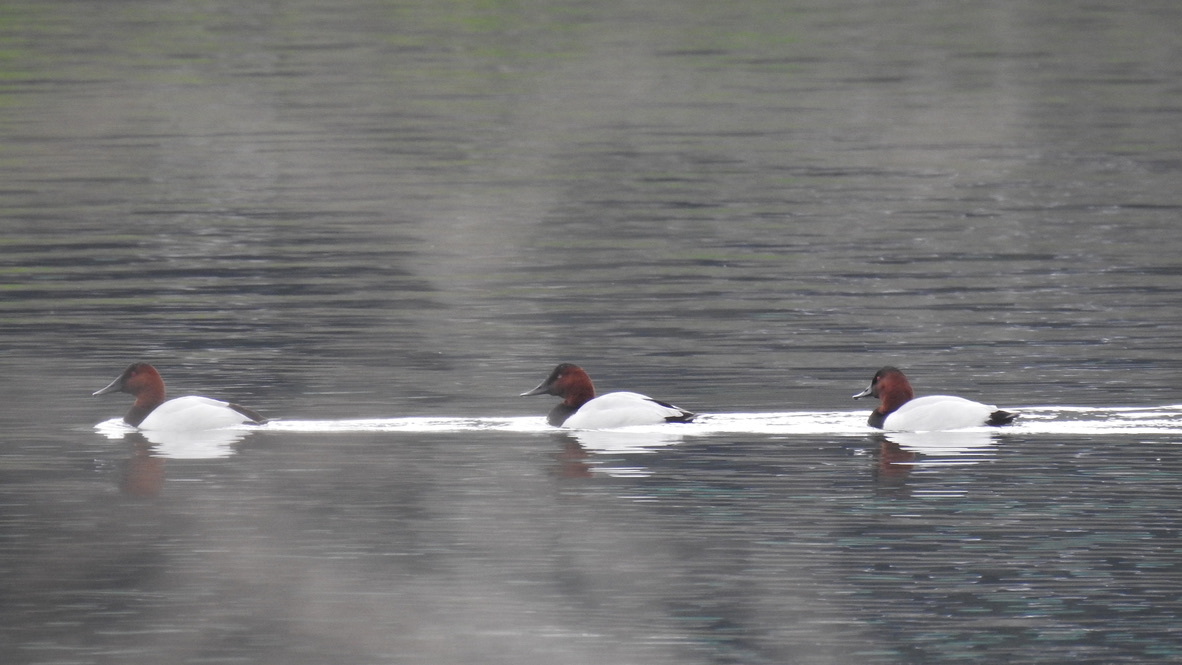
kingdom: Animalia
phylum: Chordata
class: Aves
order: Anseriformes
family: Anatidae
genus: Aythya
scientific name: Aythya valisineria
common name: Canvasback
